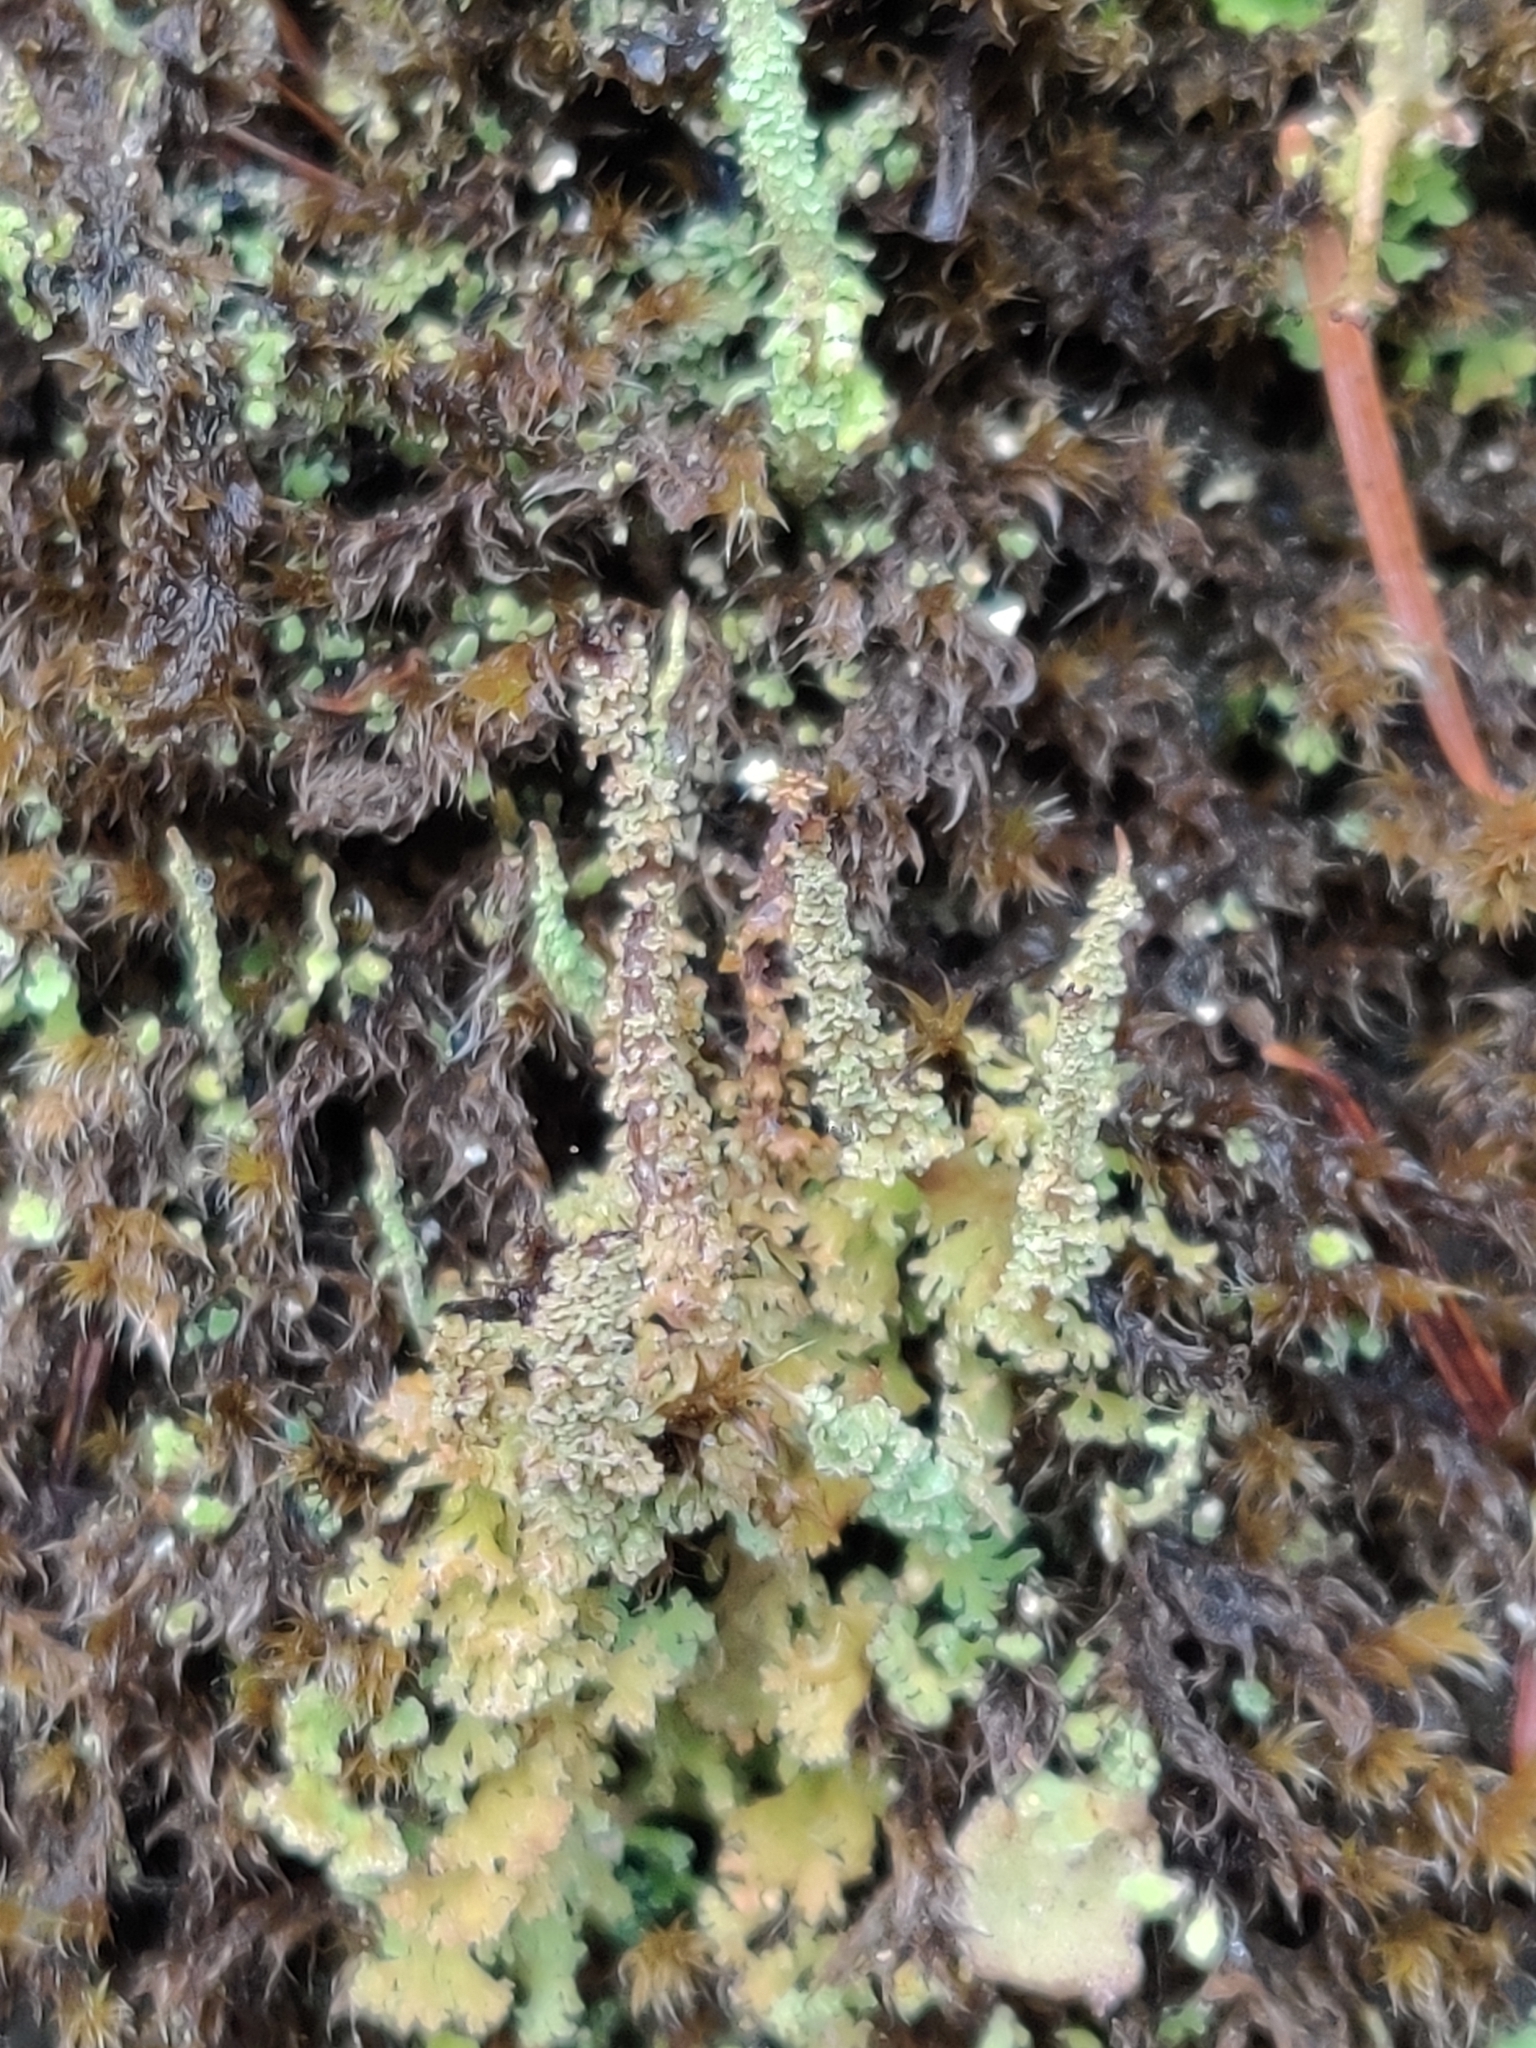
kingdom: Fungi
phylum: Ascomycota
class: Lecanoromycetes
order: Lecanorales
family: Cladoniaceae
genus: Cladonia
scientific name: Cladonia squamosa
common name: Dragon horn
